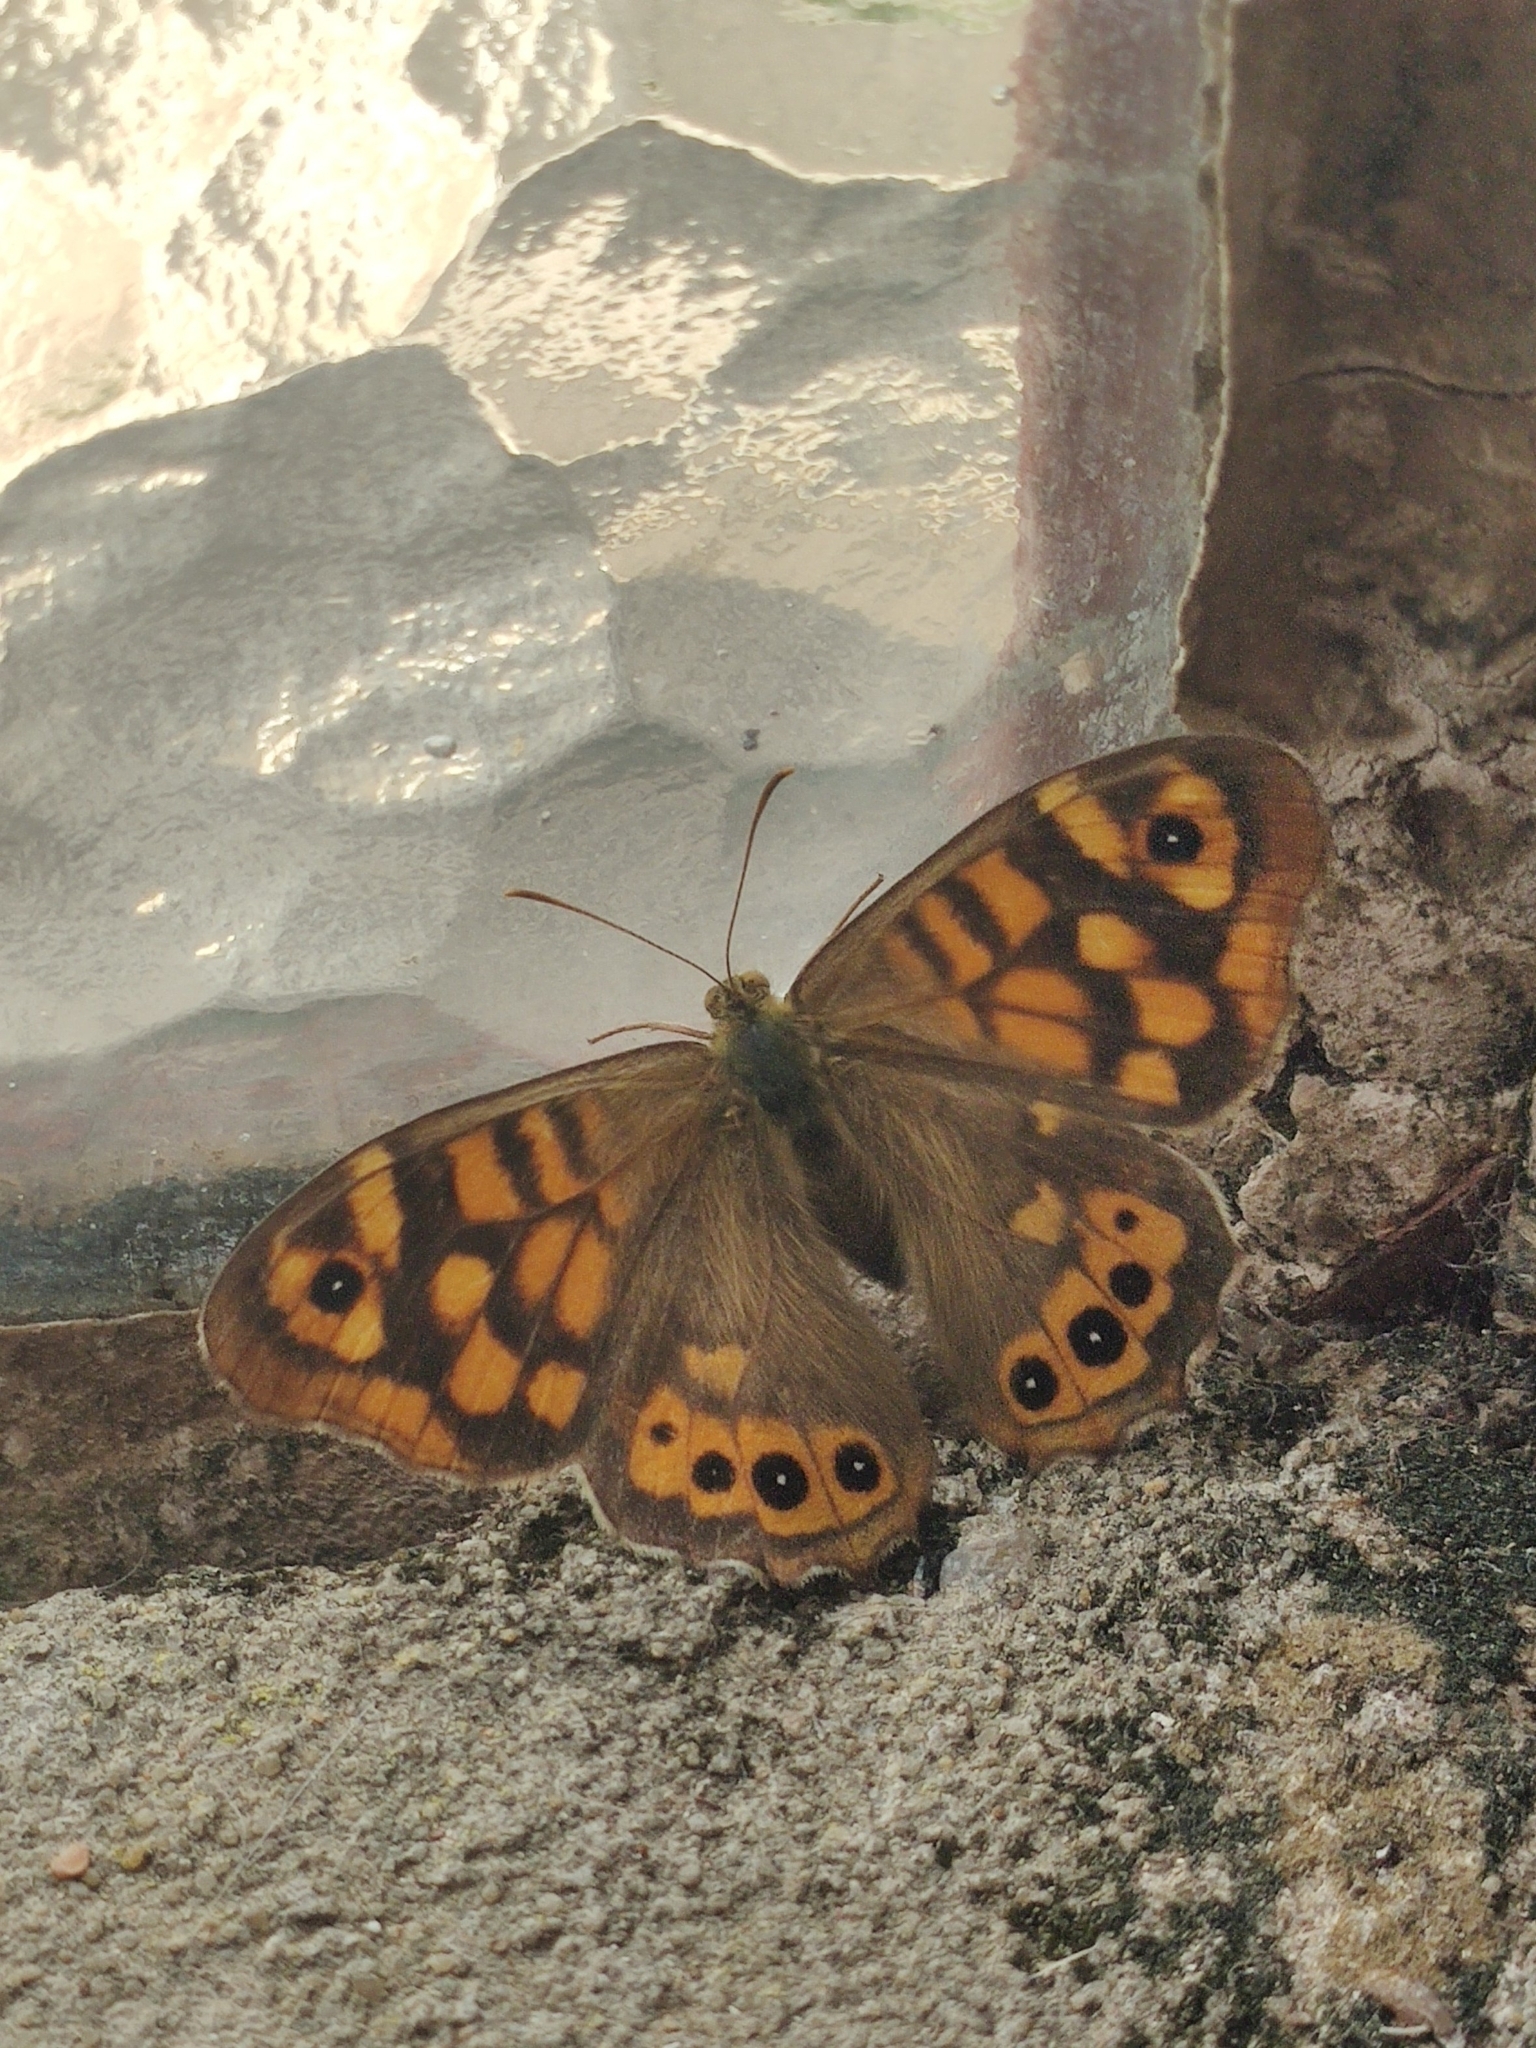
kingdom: Animalia
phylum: Arthropoda
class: Insecta
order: Lepidoptera
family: Nymphalidae
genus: Pararge
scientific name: Pararge aegeria
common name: Speckled wood
